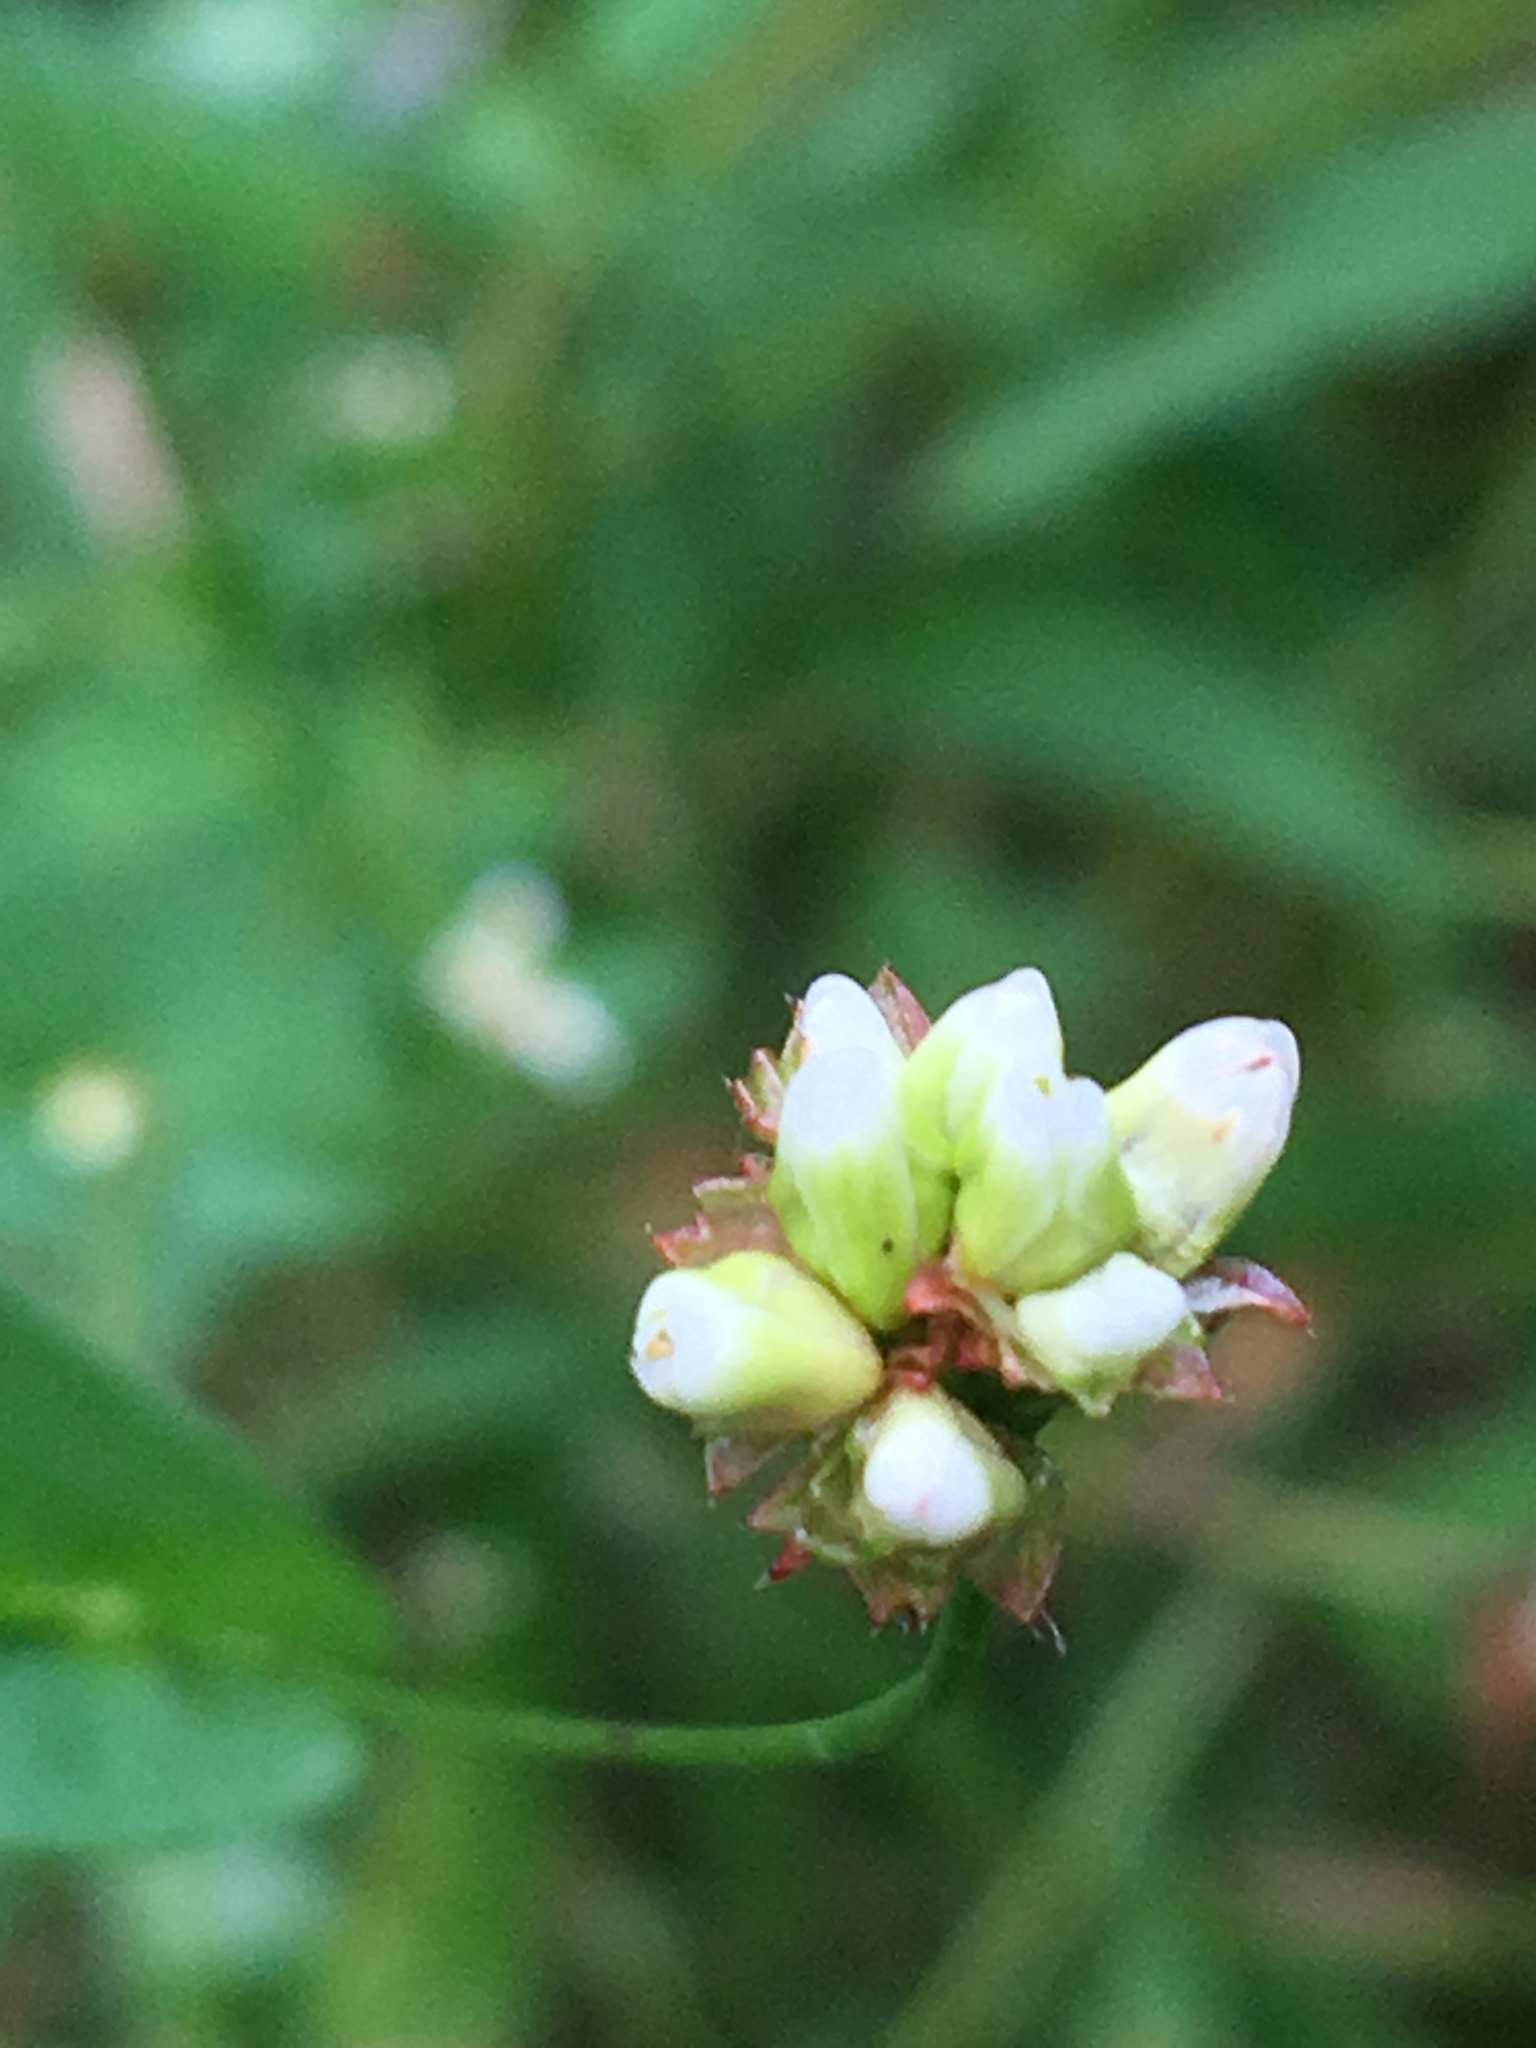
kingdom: Plantae
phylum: Tracheophyta
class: Magnoliopsida
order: Caryophyllales
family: Polygonaceae
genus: Persicaria
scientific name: Persicaria sagittata
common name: American tearthumb
